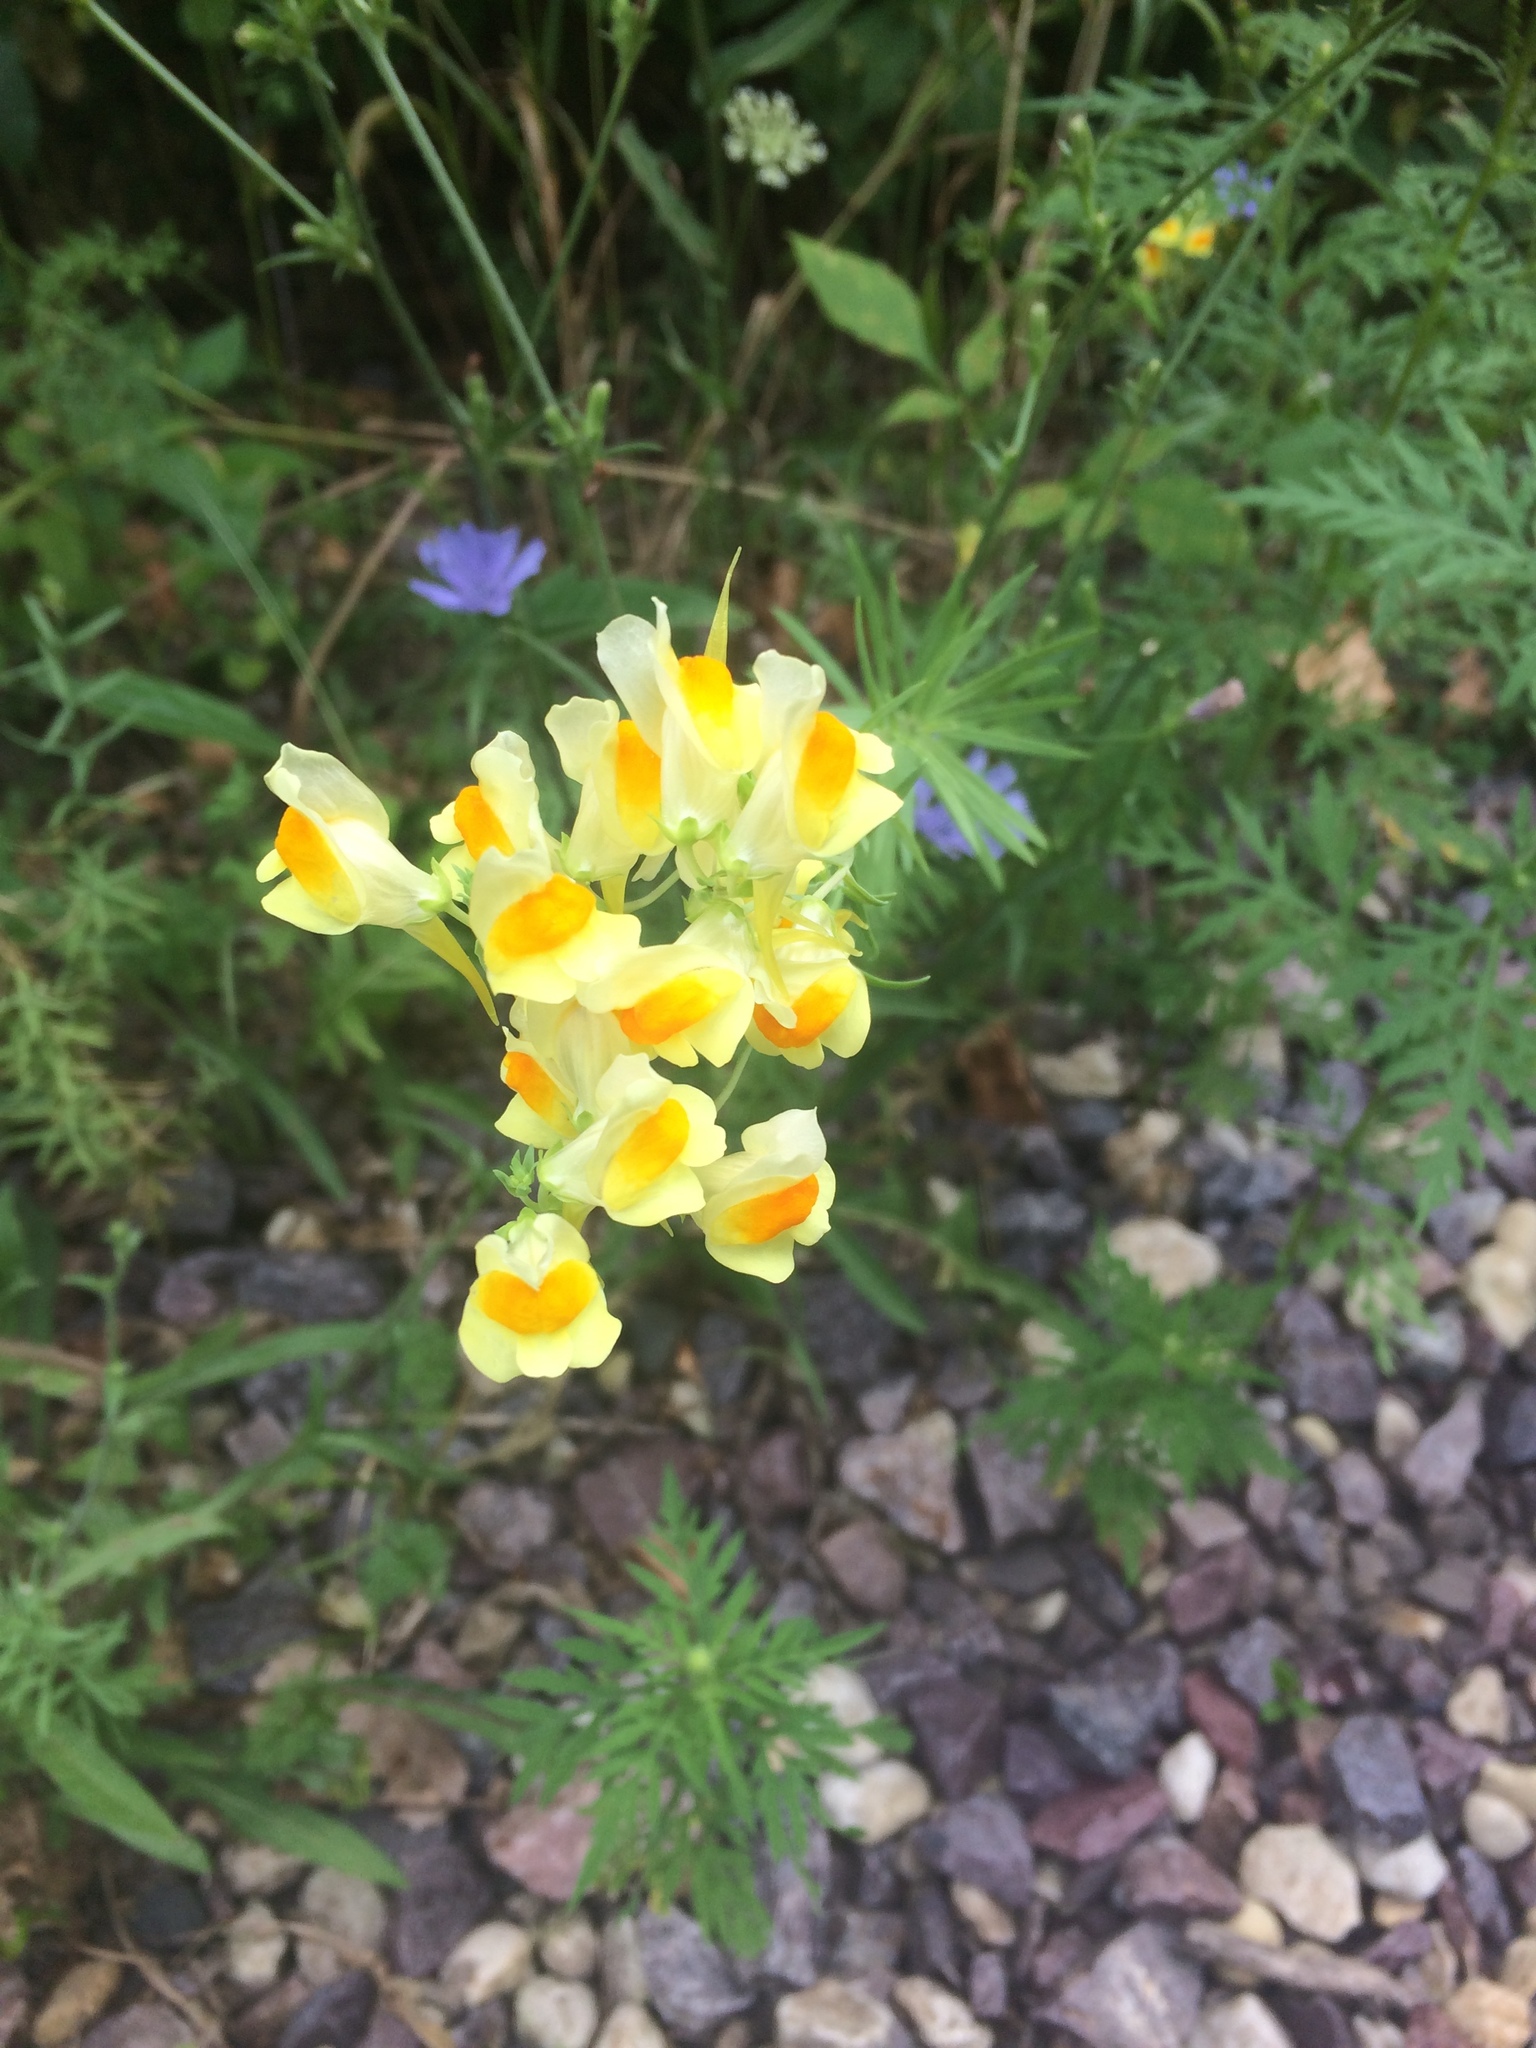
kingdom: Plantae
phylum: Tracheophyta
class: Magnoliopsida
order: Lamiales
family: Plantaginaceae
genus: Linaria
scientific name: Linaria vulgaris
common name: Butter and eggs
